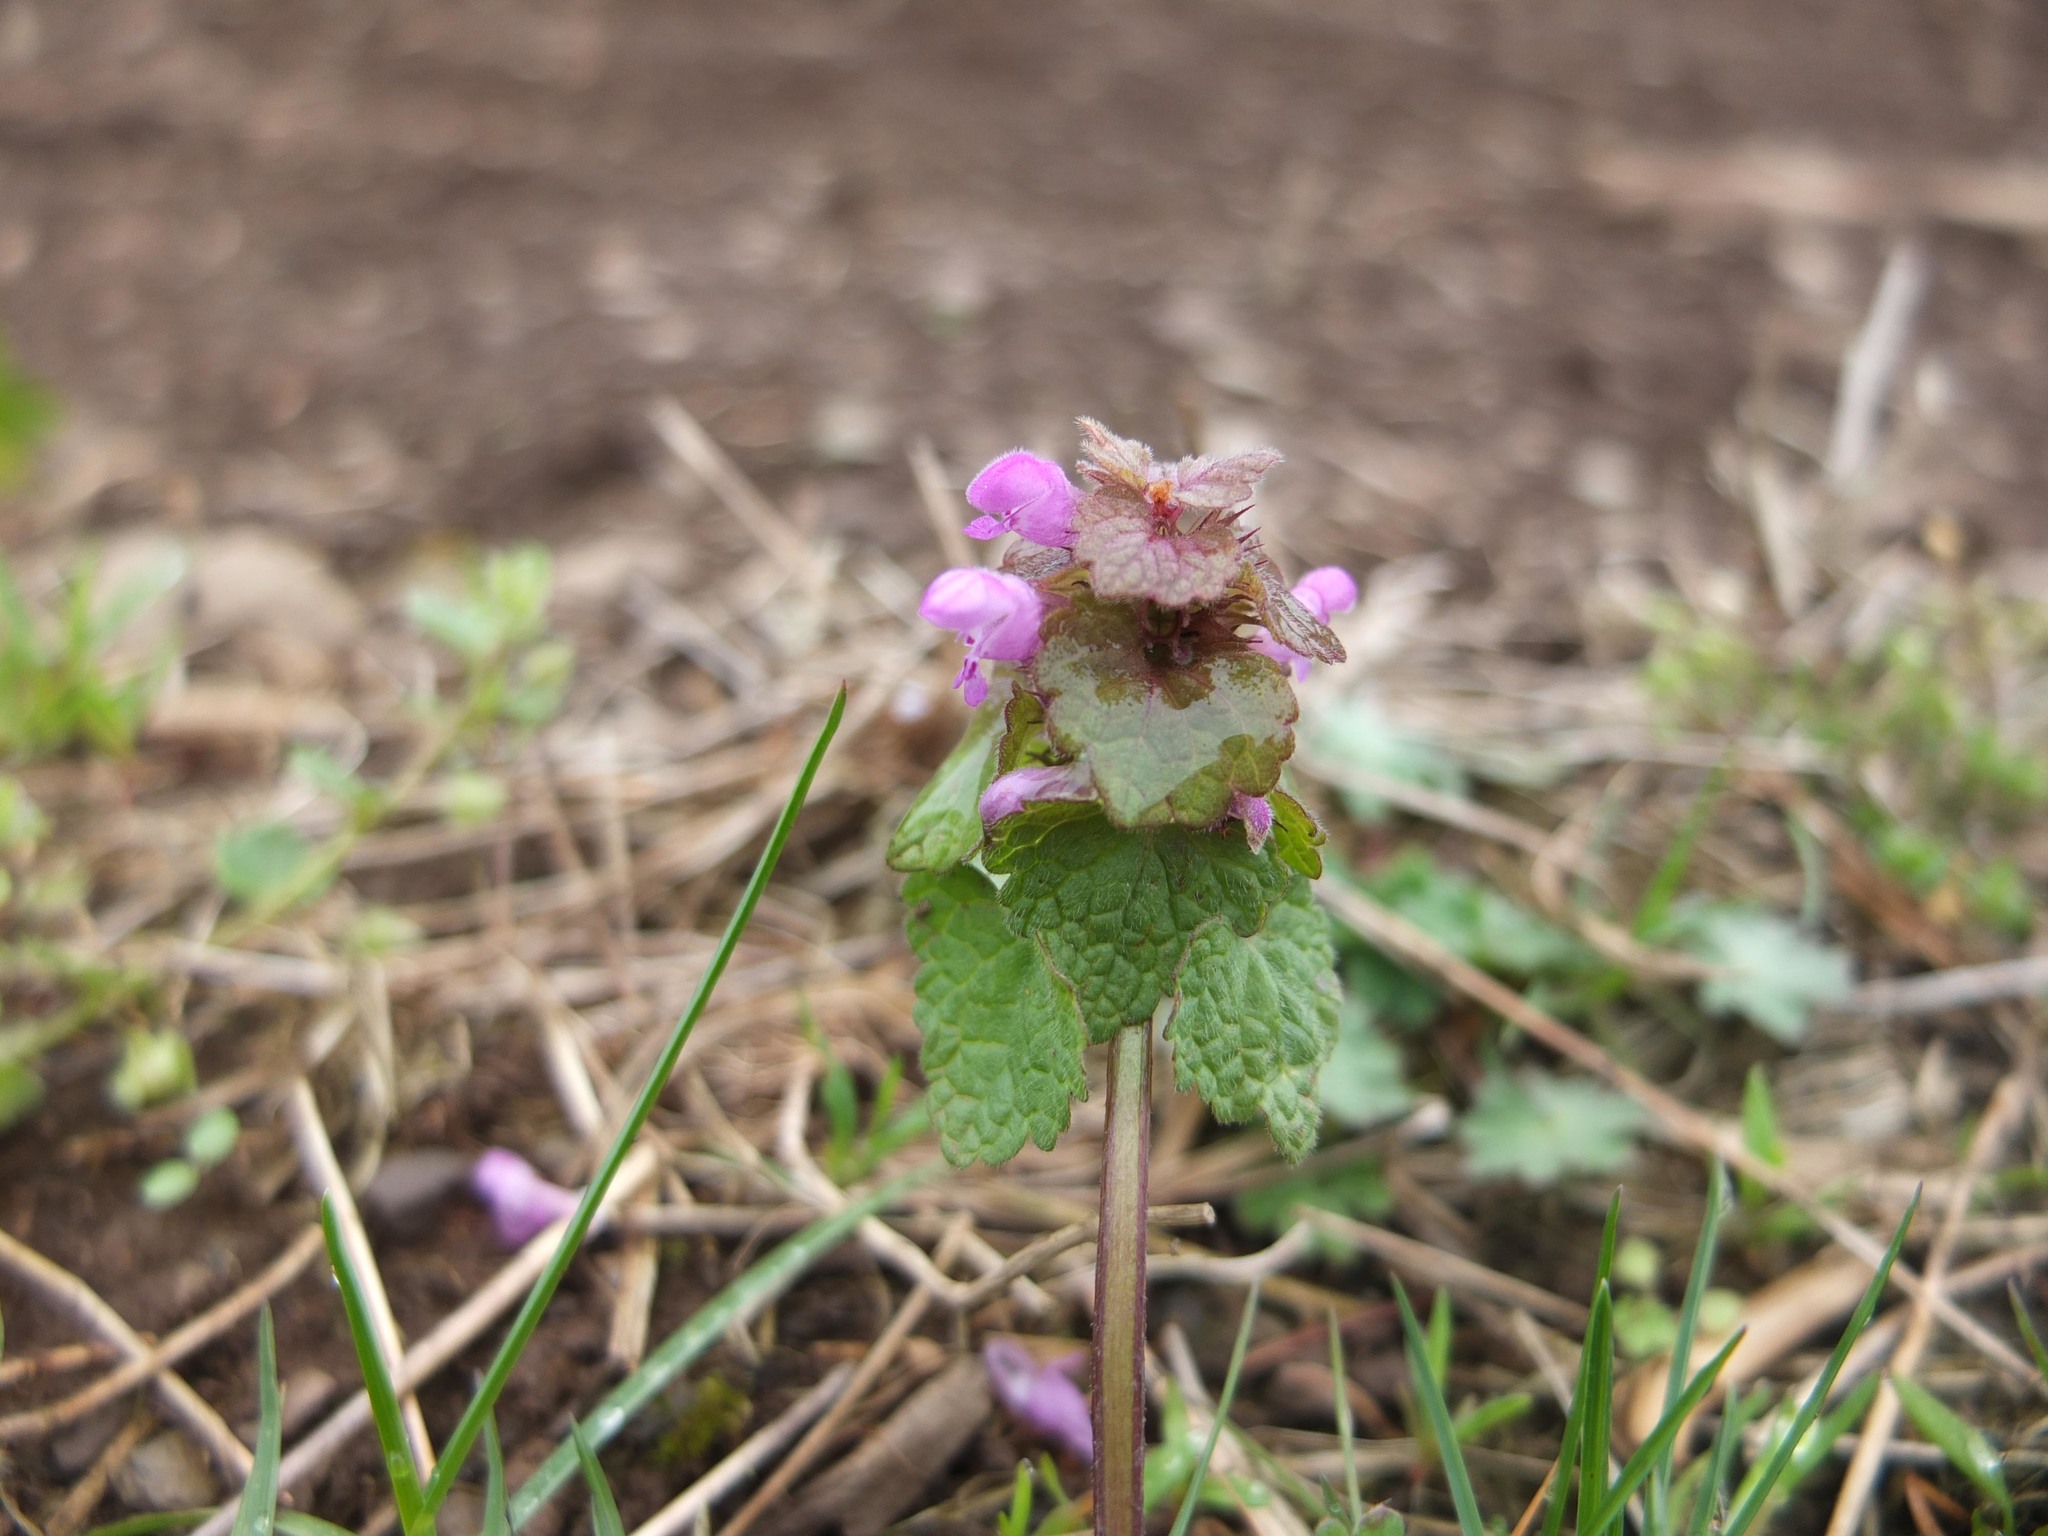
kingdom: Plantae
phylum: Tracheophyta
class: Magnoliopsida
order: Lamiales
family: Lamiaceae
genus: Lamium
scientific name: Lamium purpureum
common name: Red dead-nettle
